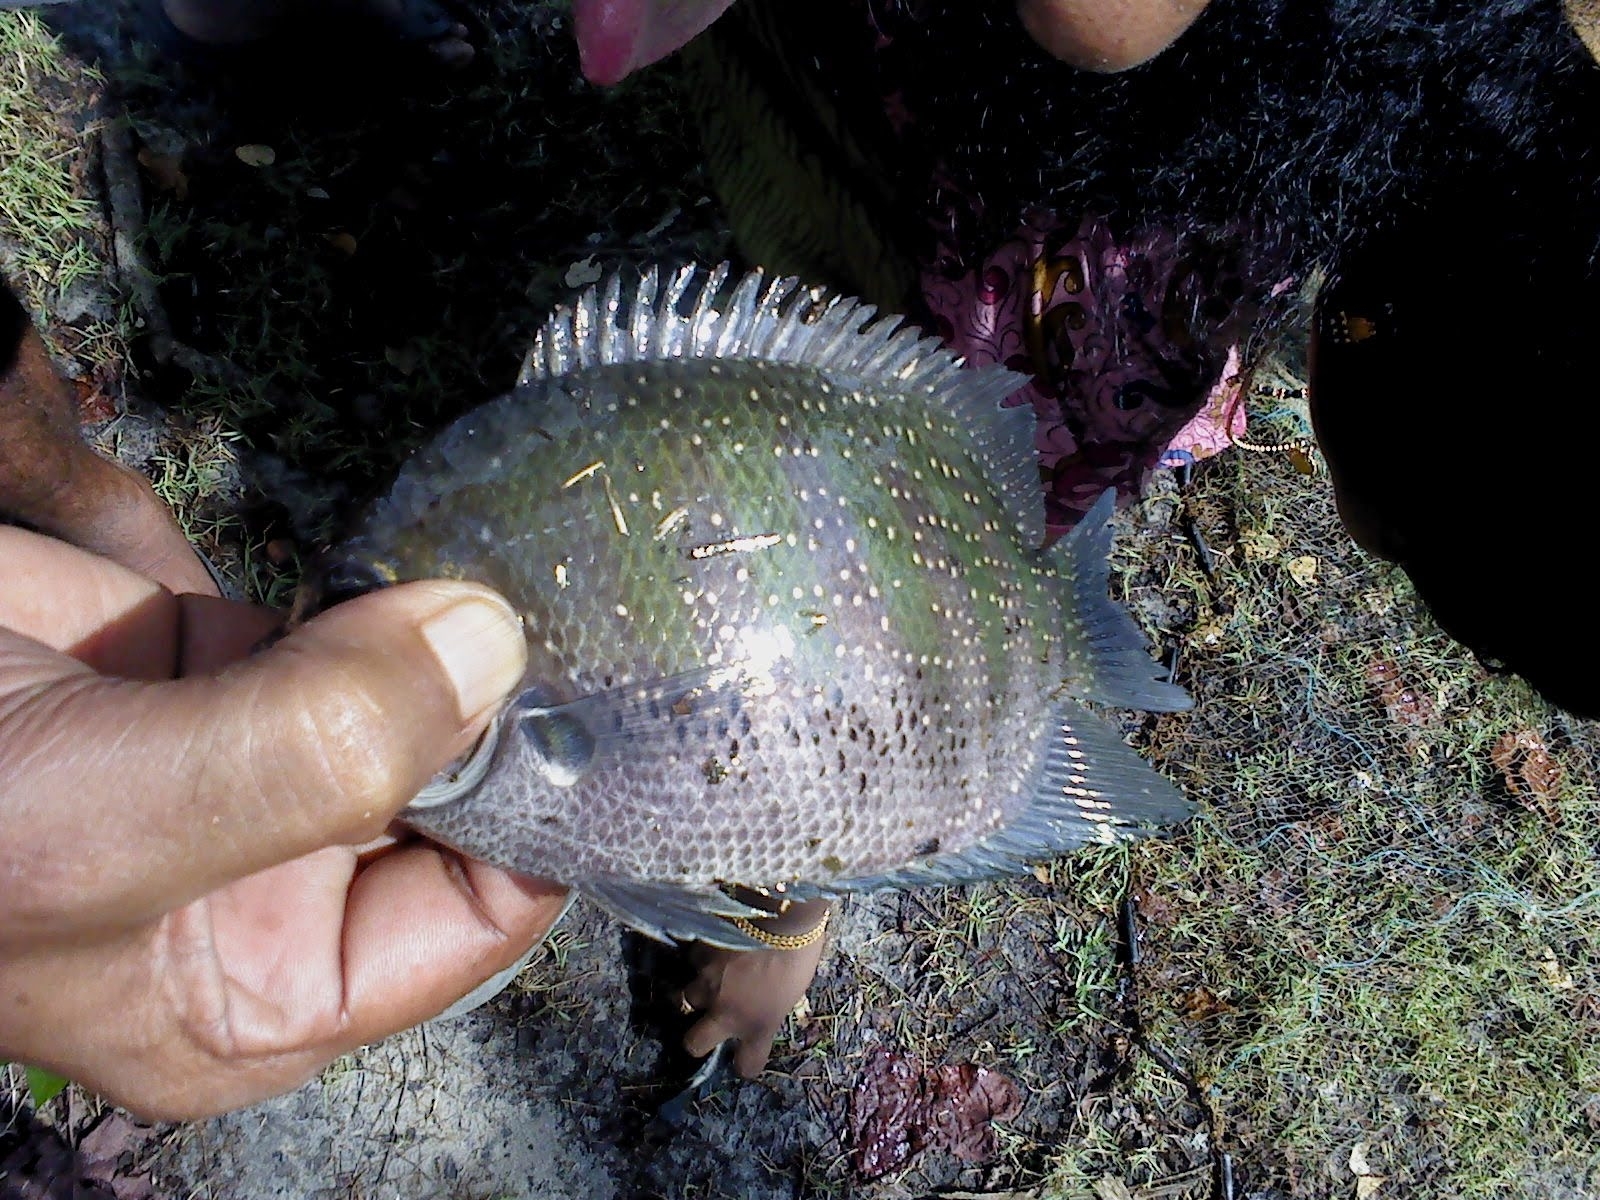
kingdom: Animalia
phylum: Chordata
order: Perciformes
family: Cichlidae
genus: Etroplus
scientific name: Etroplus suratensis
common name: Green chromide
